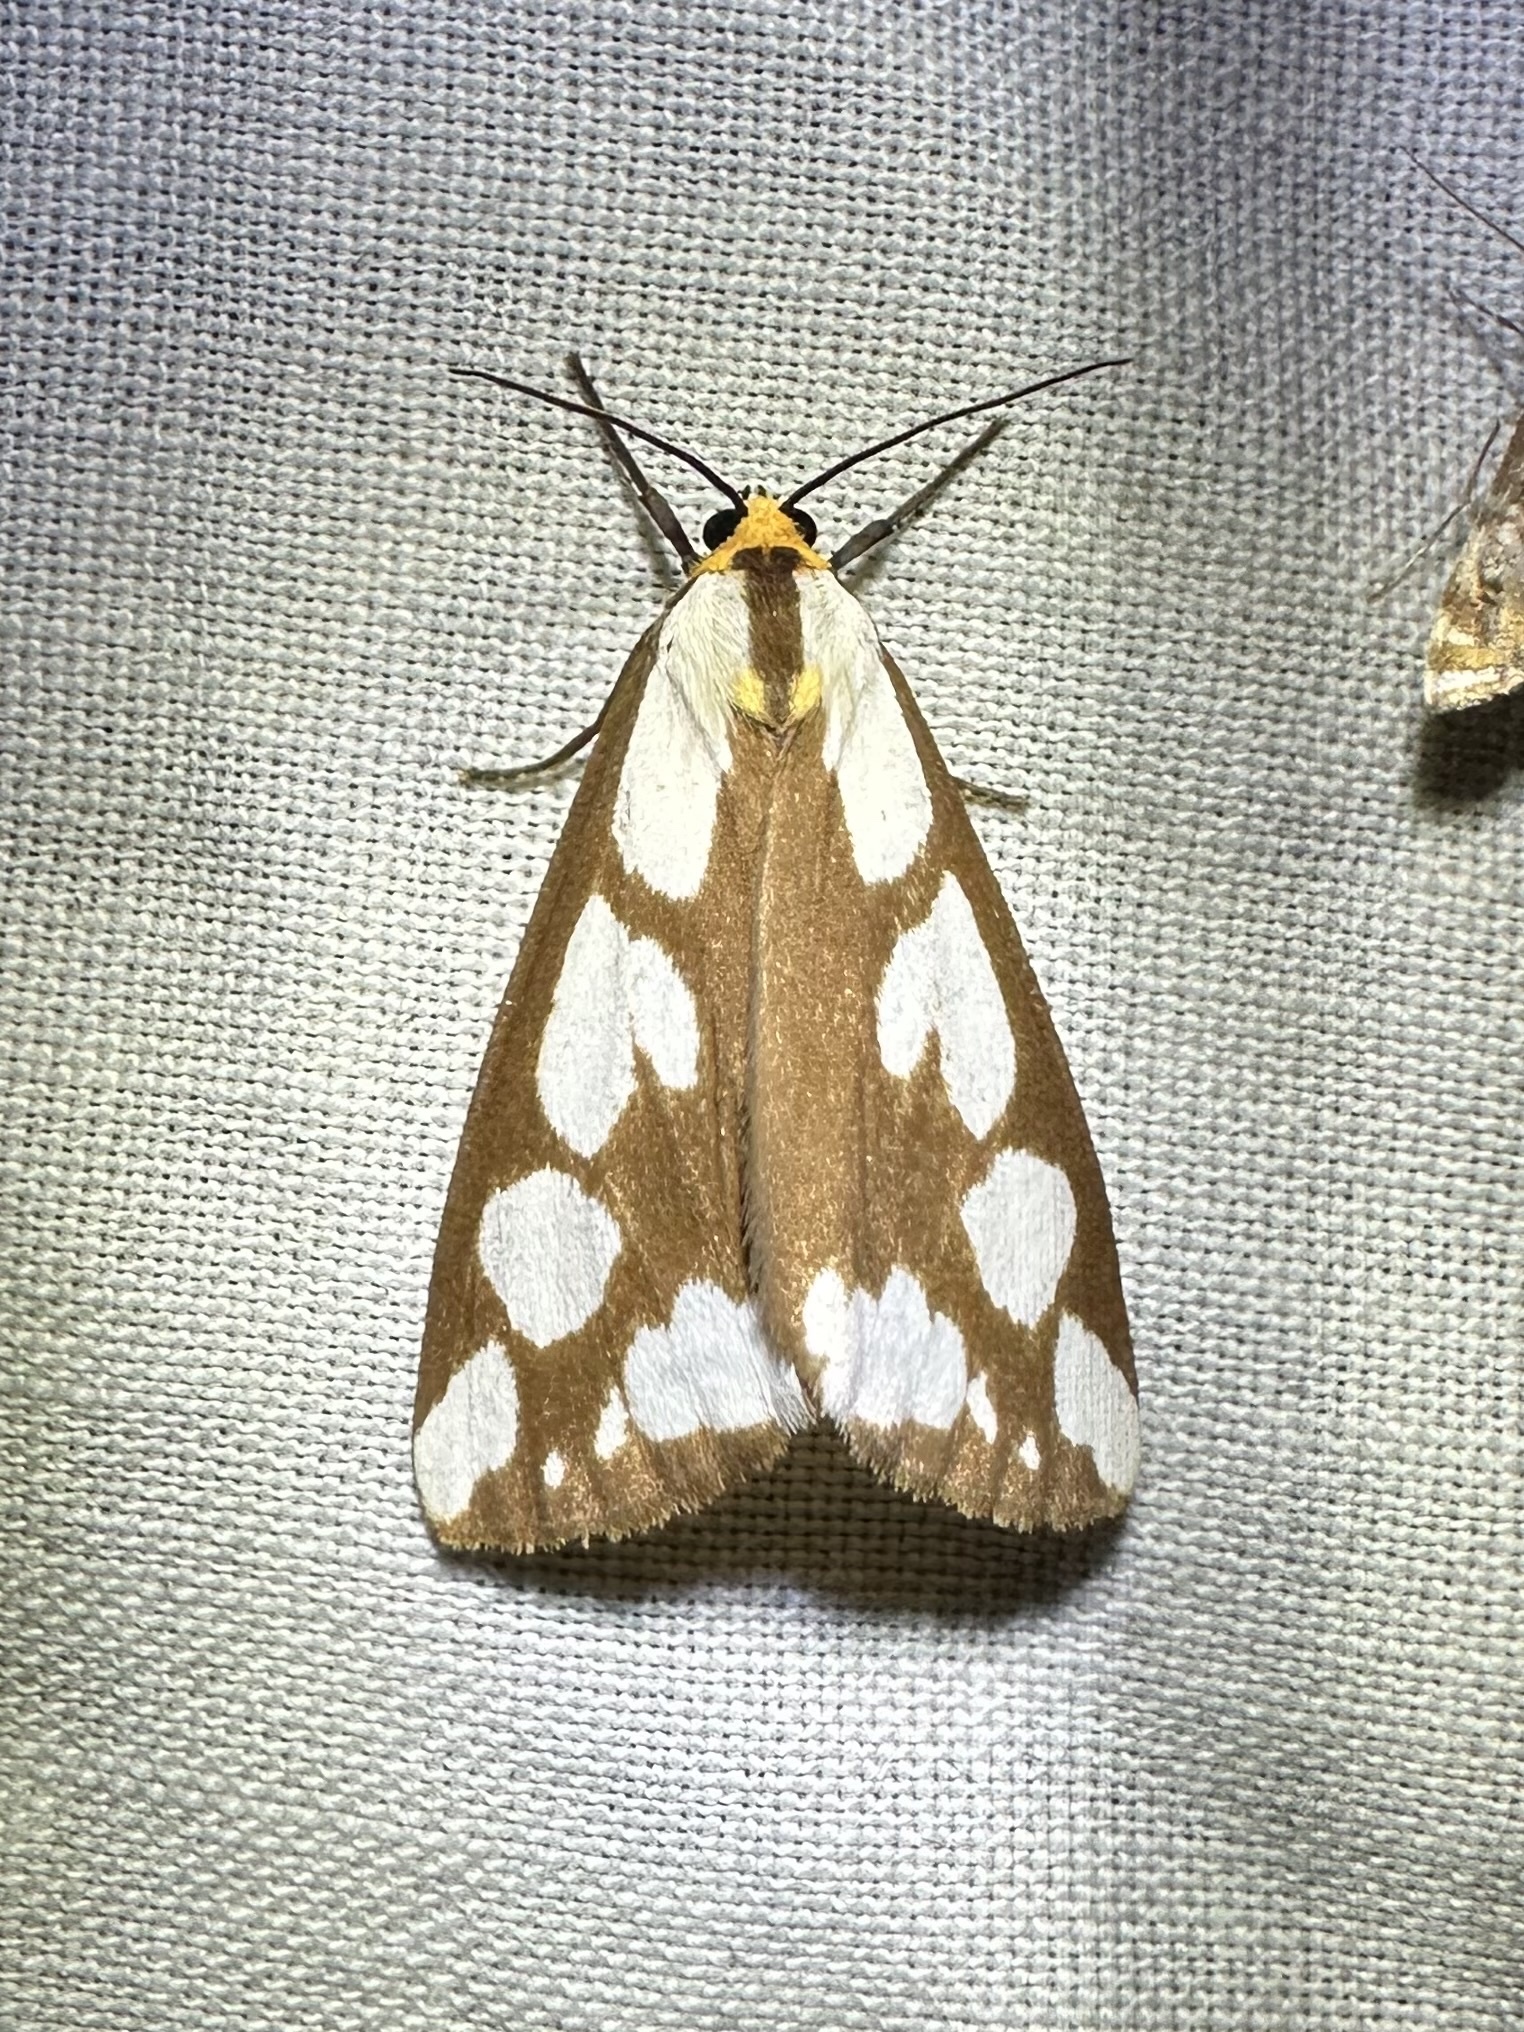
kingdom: Animalia
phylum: Arthropoda
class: Insecta
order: Lepidoptera
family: Erebidae
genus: Haploa
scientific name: Haploa confusa
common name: Confused haploa moth
